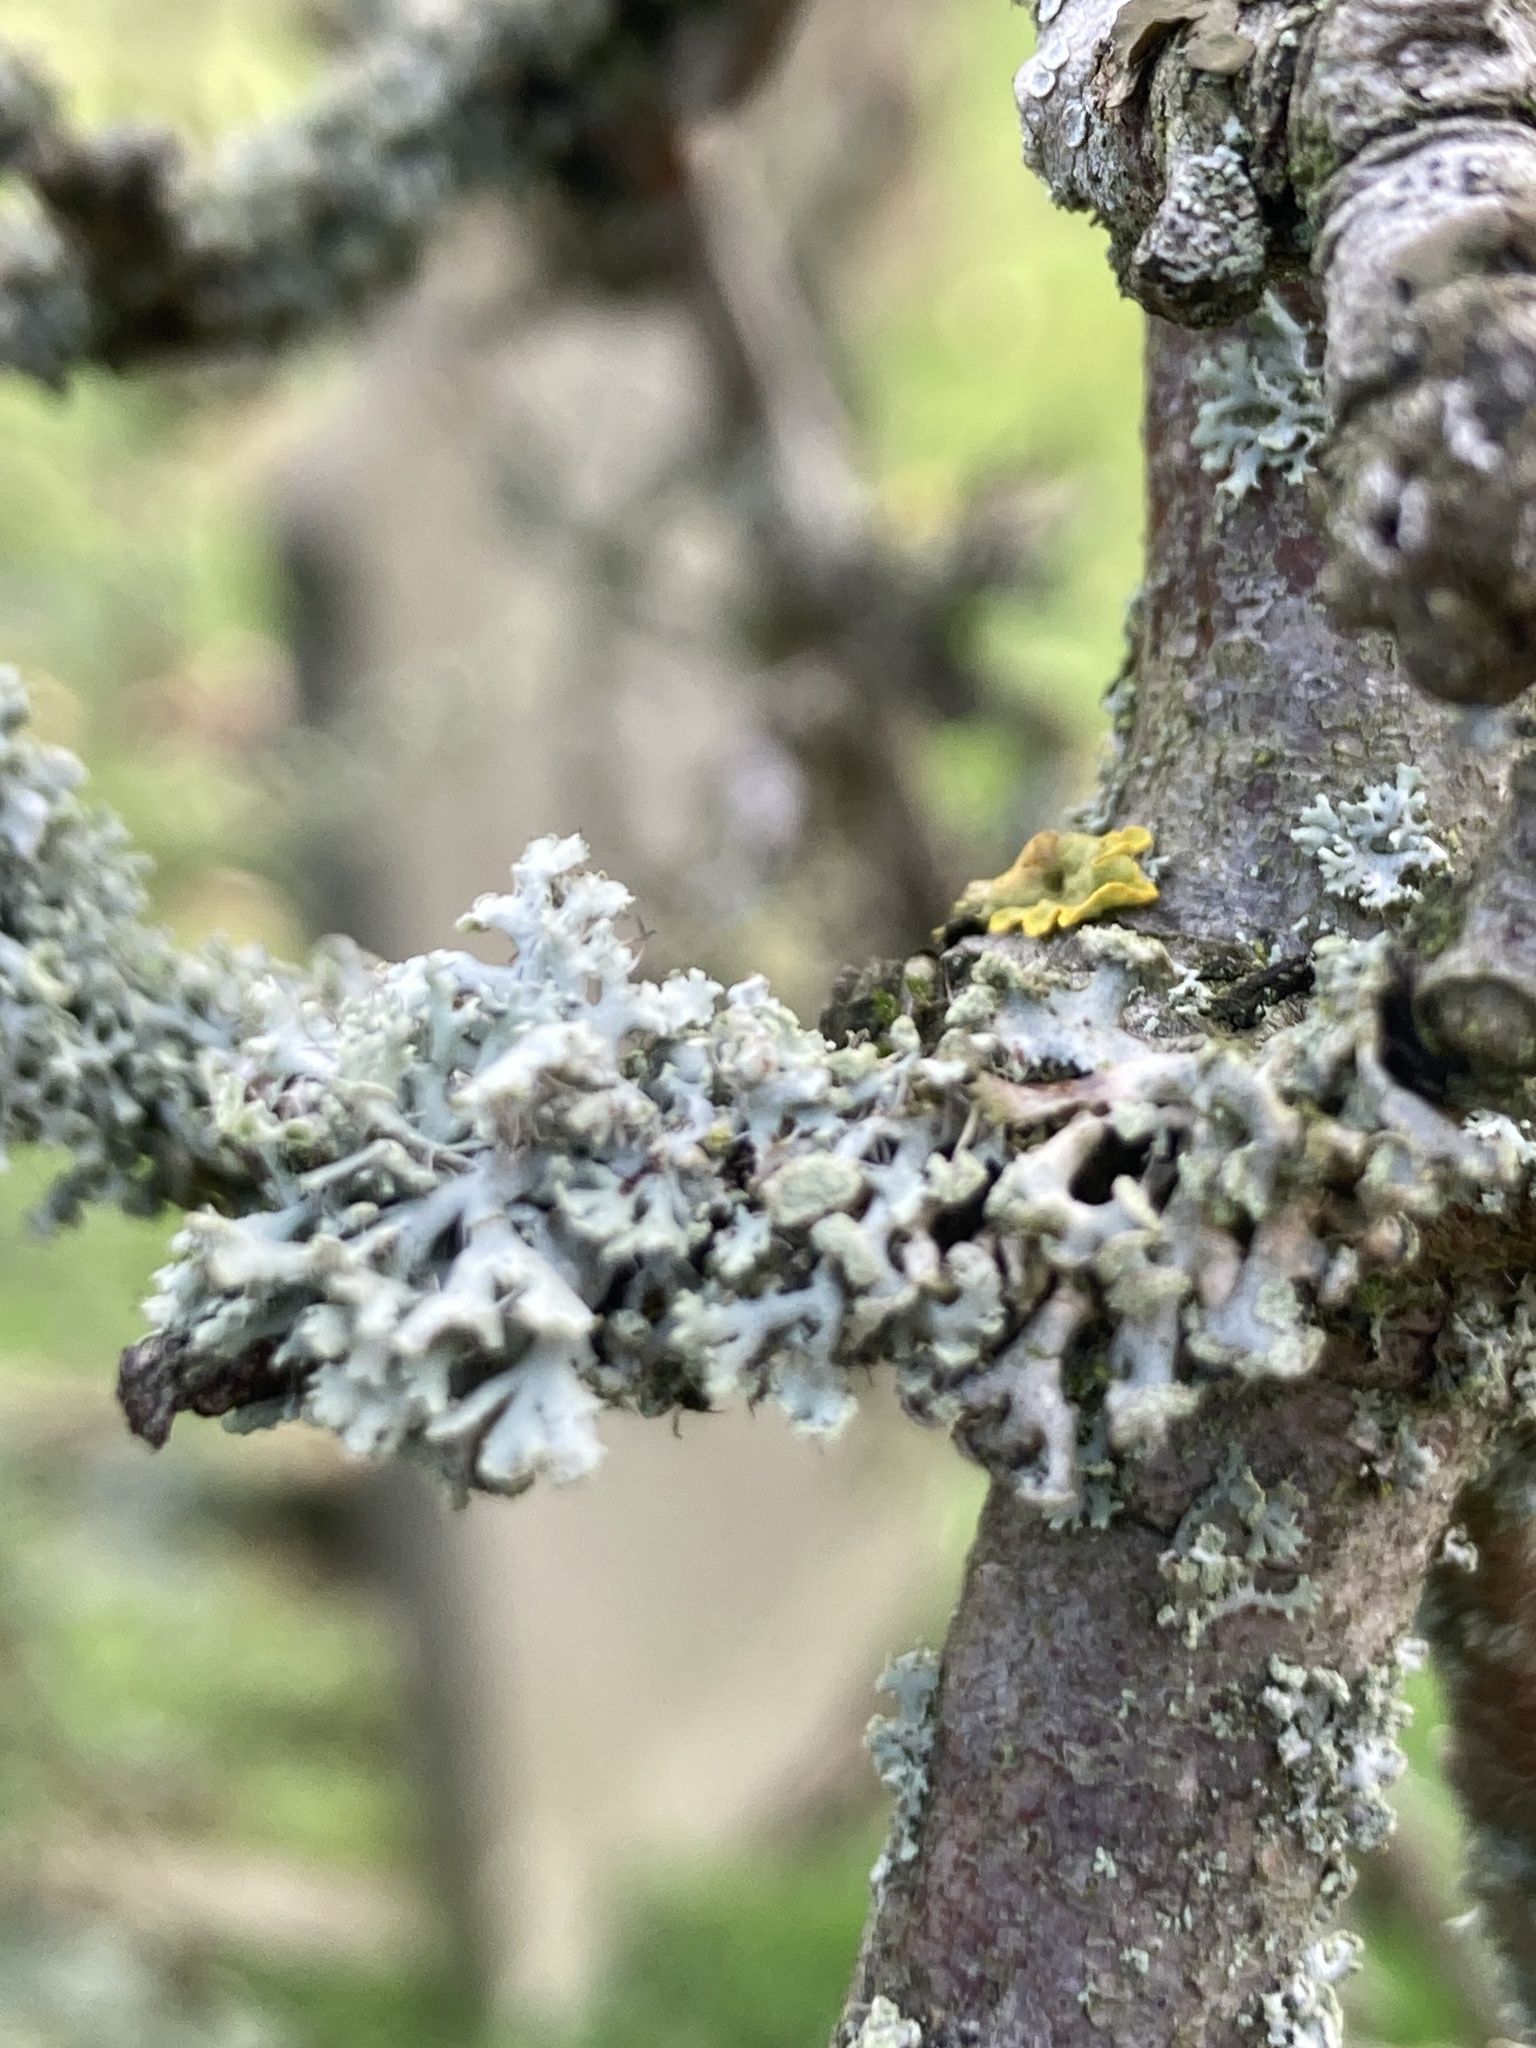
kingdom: Fungi
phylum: Ascomycota
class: Lecanoromycetes
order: Caliciales
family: Physciaceae
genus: Physcia
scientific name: Physcia tenella
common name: Fringed rosette lichen
